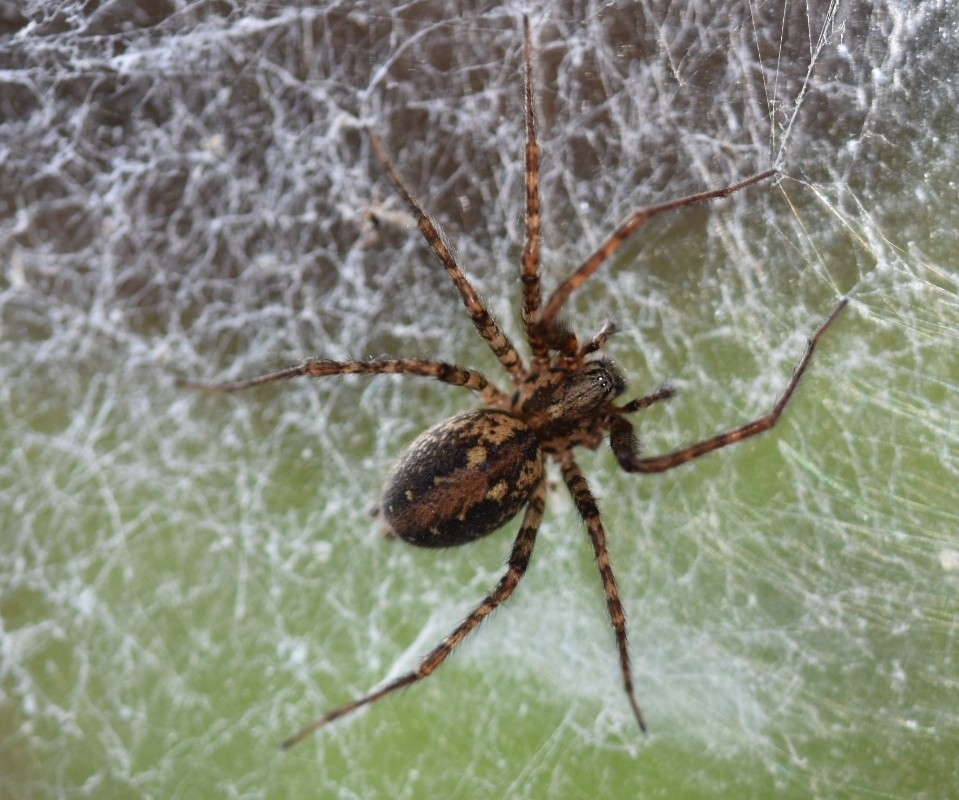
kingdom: Animalia
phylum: Arthropoda
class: Arachnida
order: Araneae
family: Agelenidae
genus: Tegenaria
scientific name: Tegenaria ferruginea
